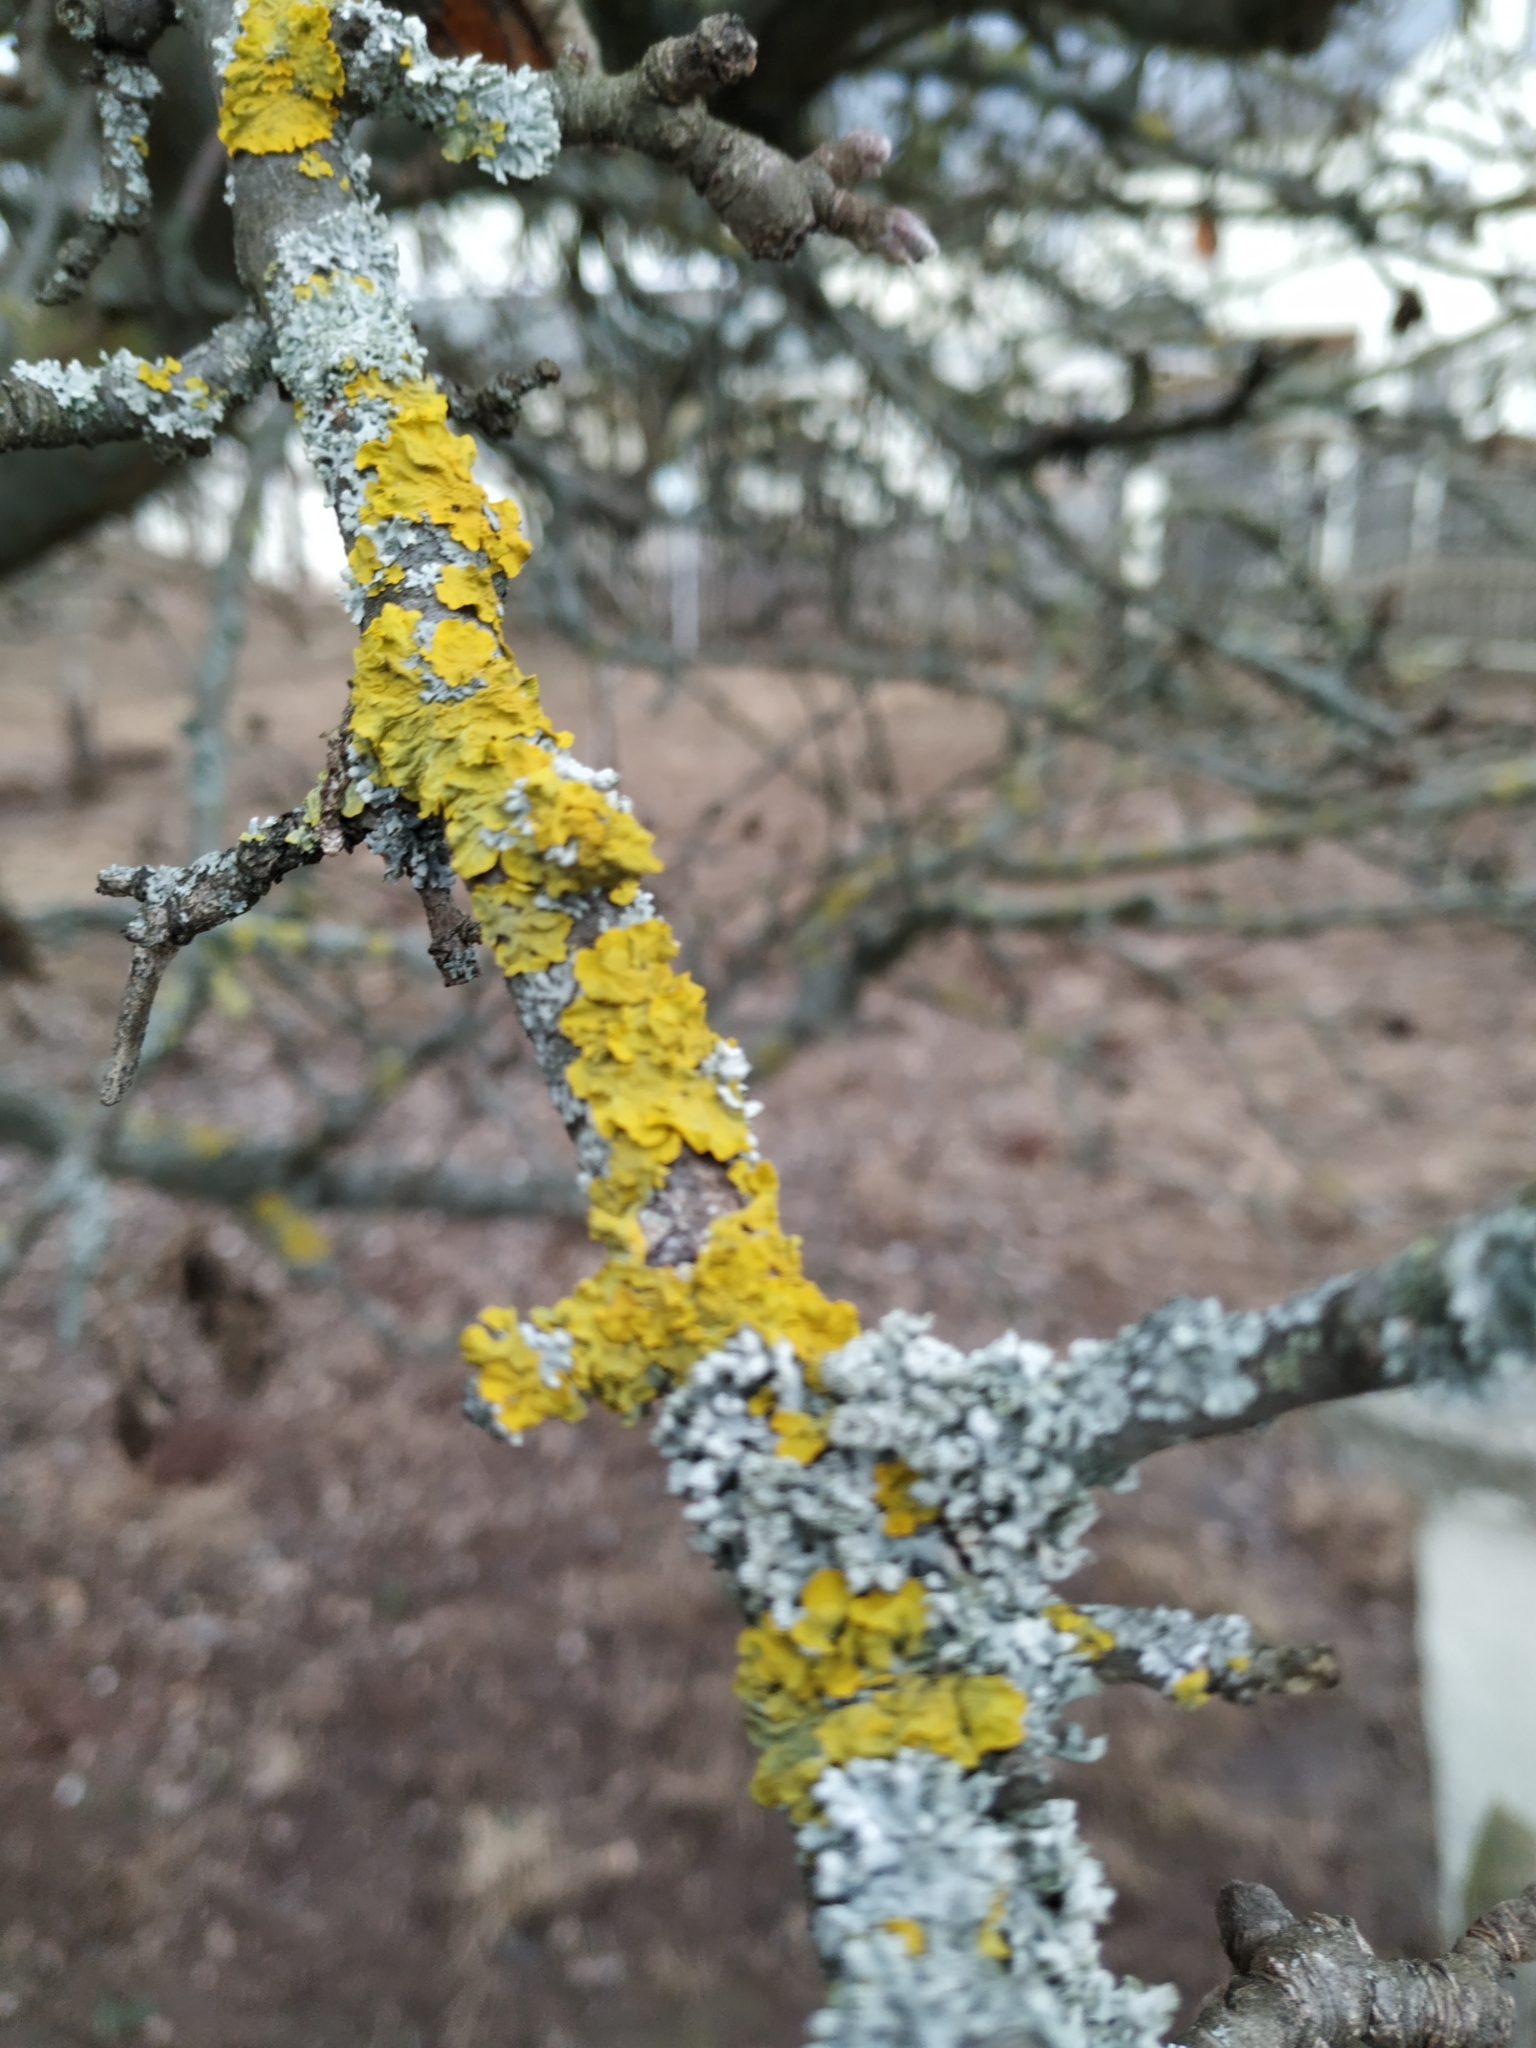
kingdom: Fungi
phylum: Ascomycota
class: Lecanoromycetes
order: Teloschistales
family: Teloschistaceae
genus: Xanthoria
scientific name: Xanthoria parietina
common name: Common orange lichen
